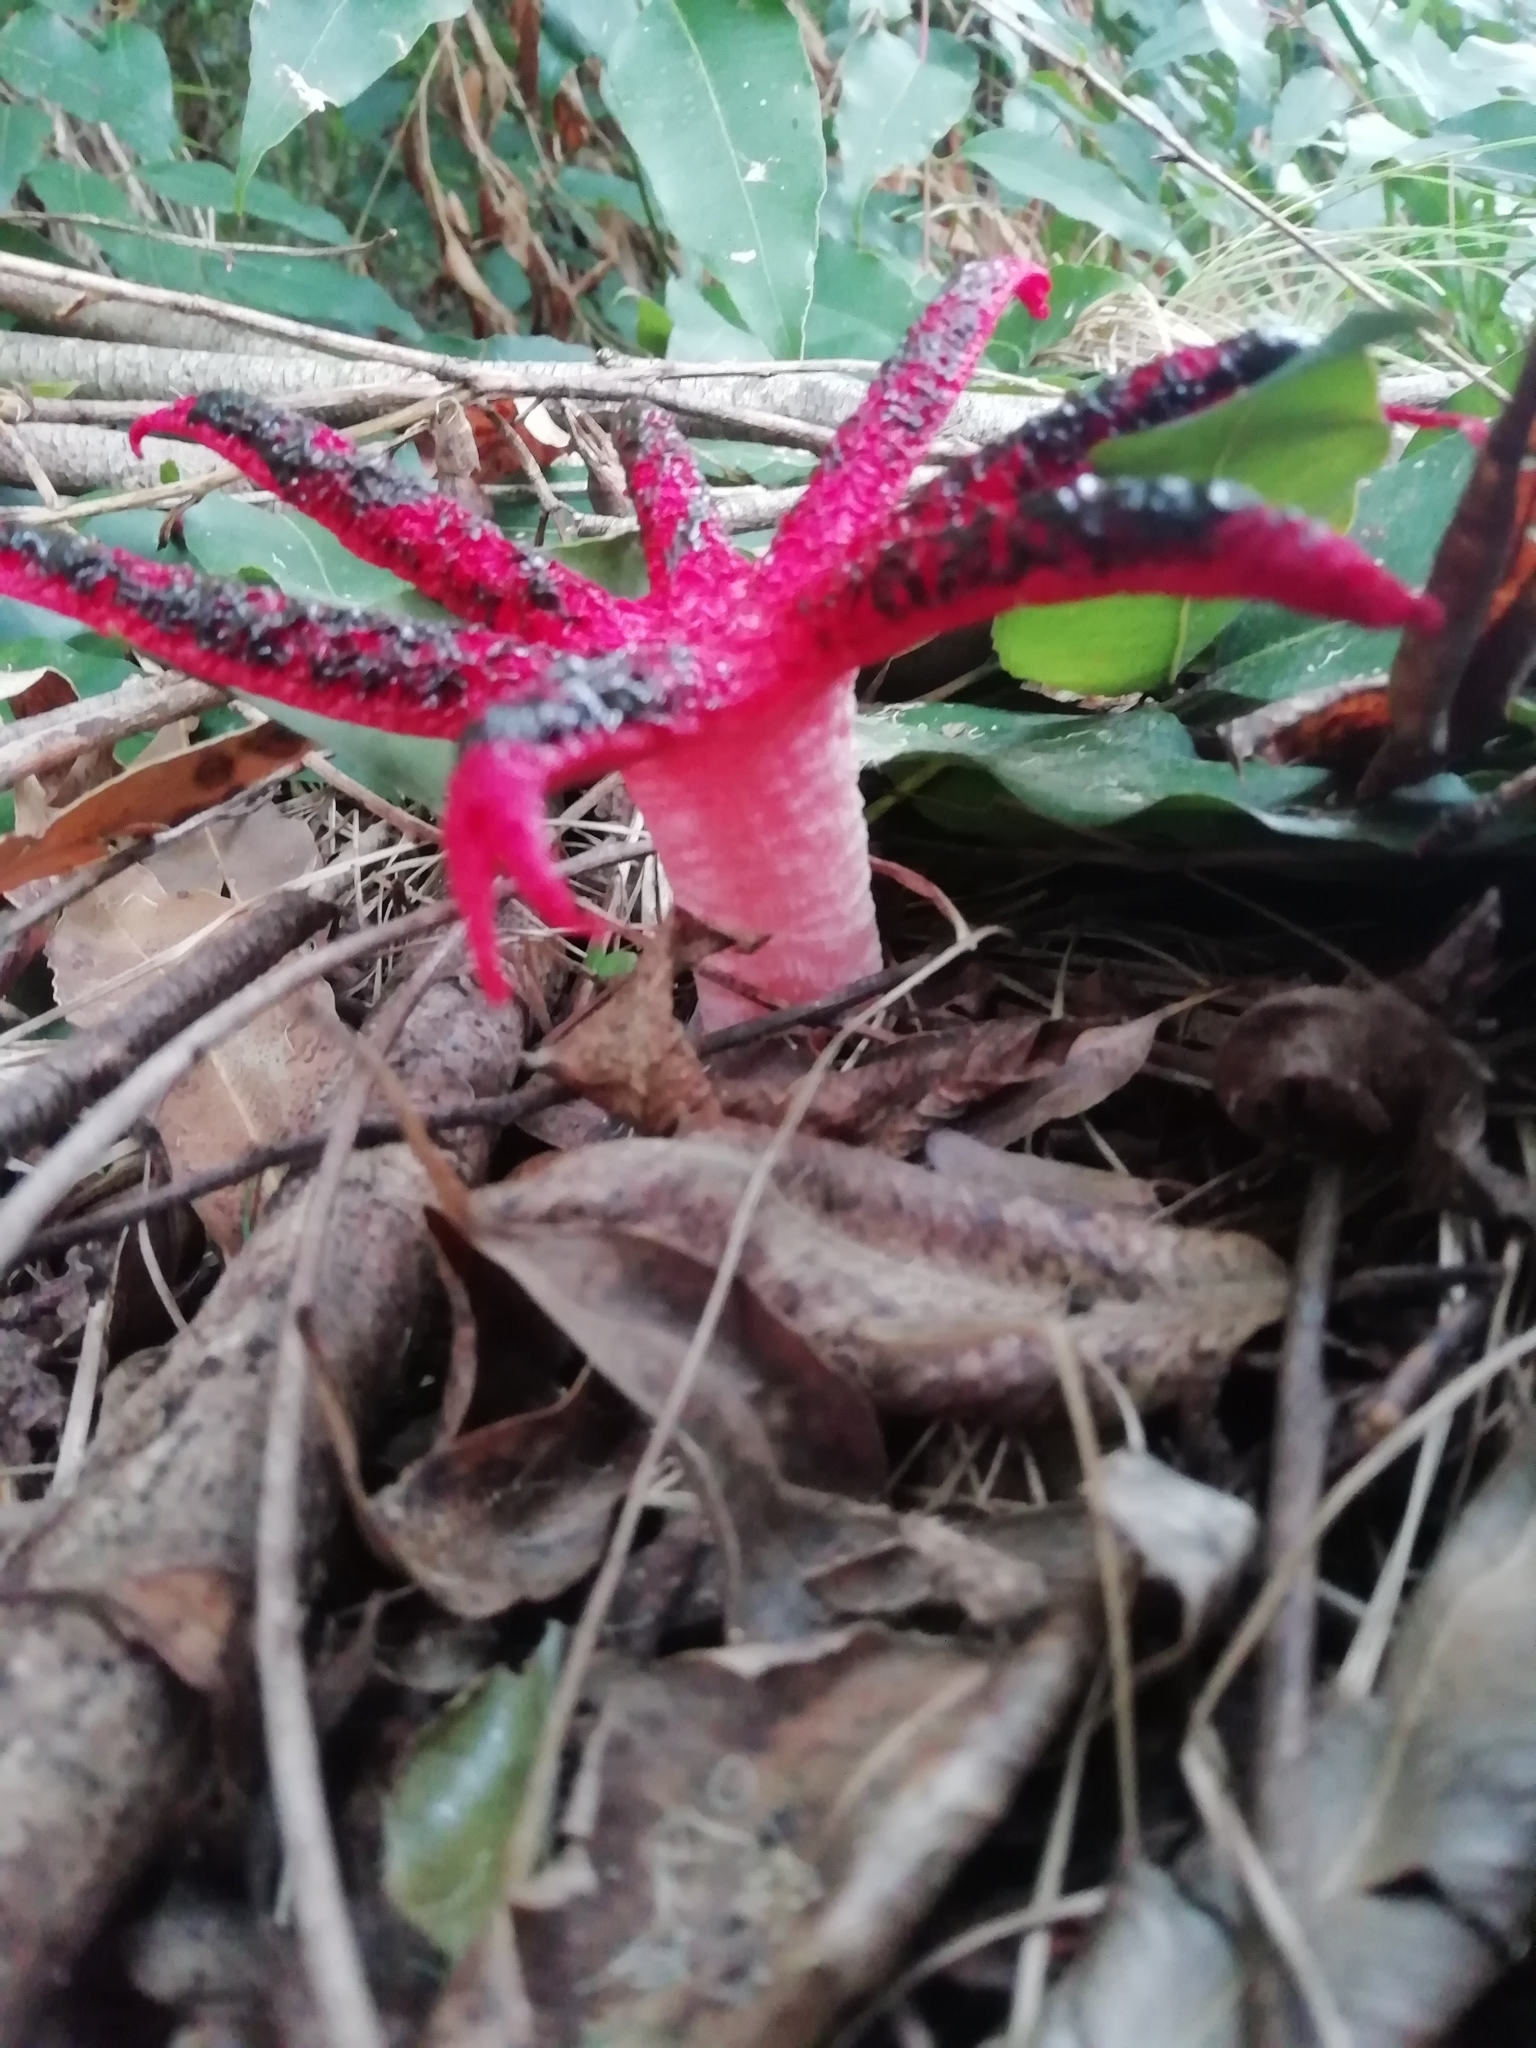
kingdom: Fungi
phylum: Basidiomycota
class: Agaricomycetes
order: Phallales
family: Phallaceae
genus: Clathrus
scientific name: Clathrus archeri
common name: Devil's fingers
